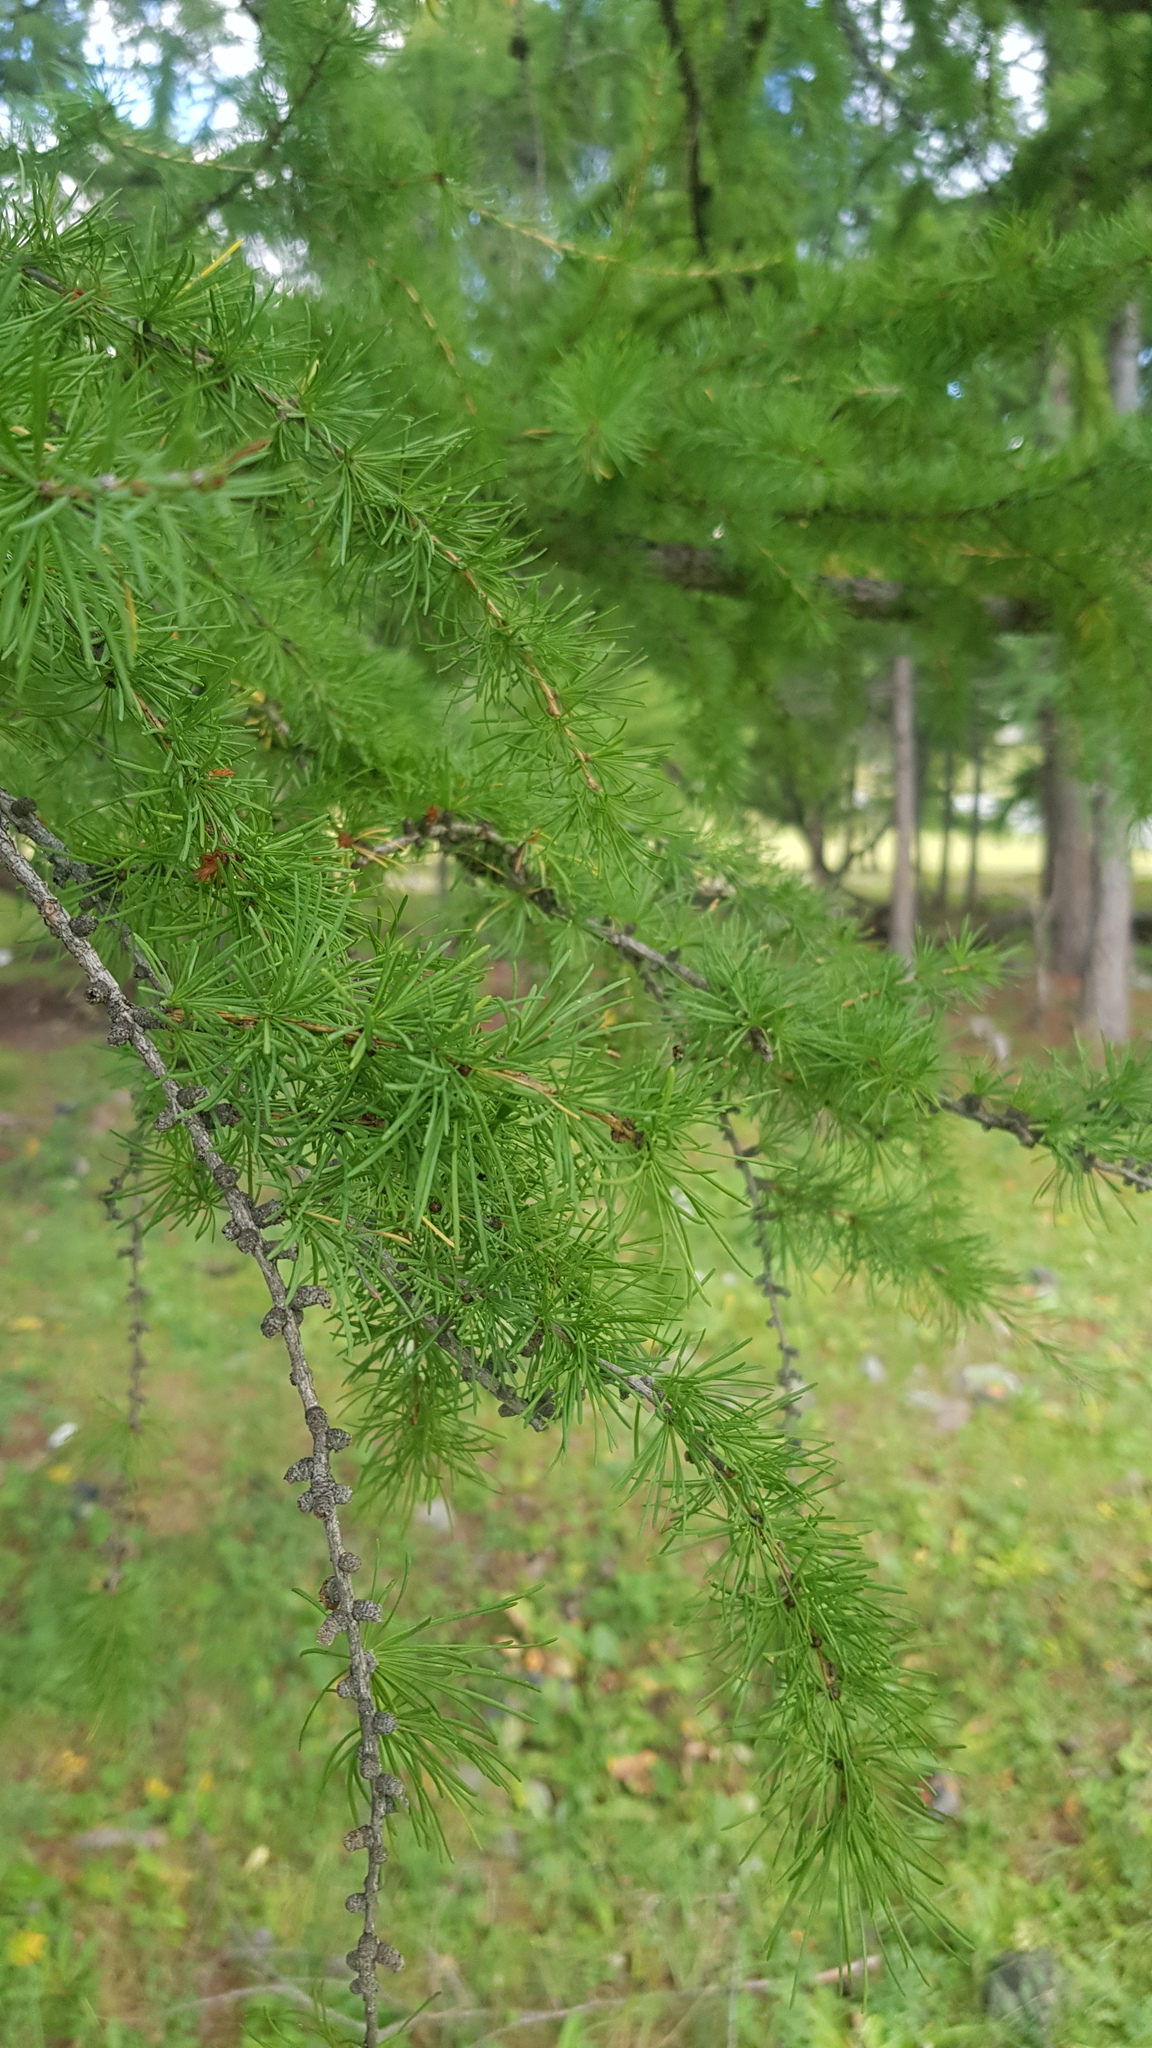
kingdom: Plantae
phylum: Tracheophyta
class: Pinopsida
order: Pinales
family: Pinaceae
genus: Larix
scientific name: Larix sibirica
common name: Siberian larch
